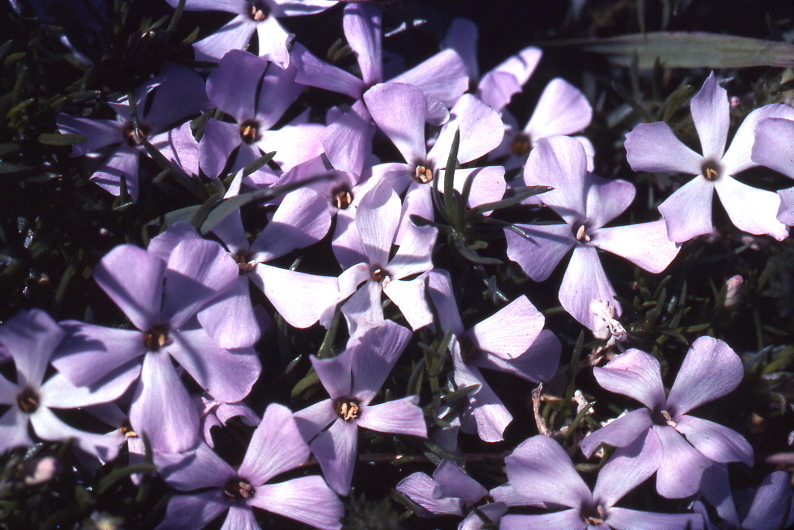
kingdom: Plantae
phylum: Tracheophyta
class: Magnoliopsida
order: Ericales
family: Polemoniaceae
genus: Phlox
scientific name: Phlox diffusa
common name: Mat phlox
